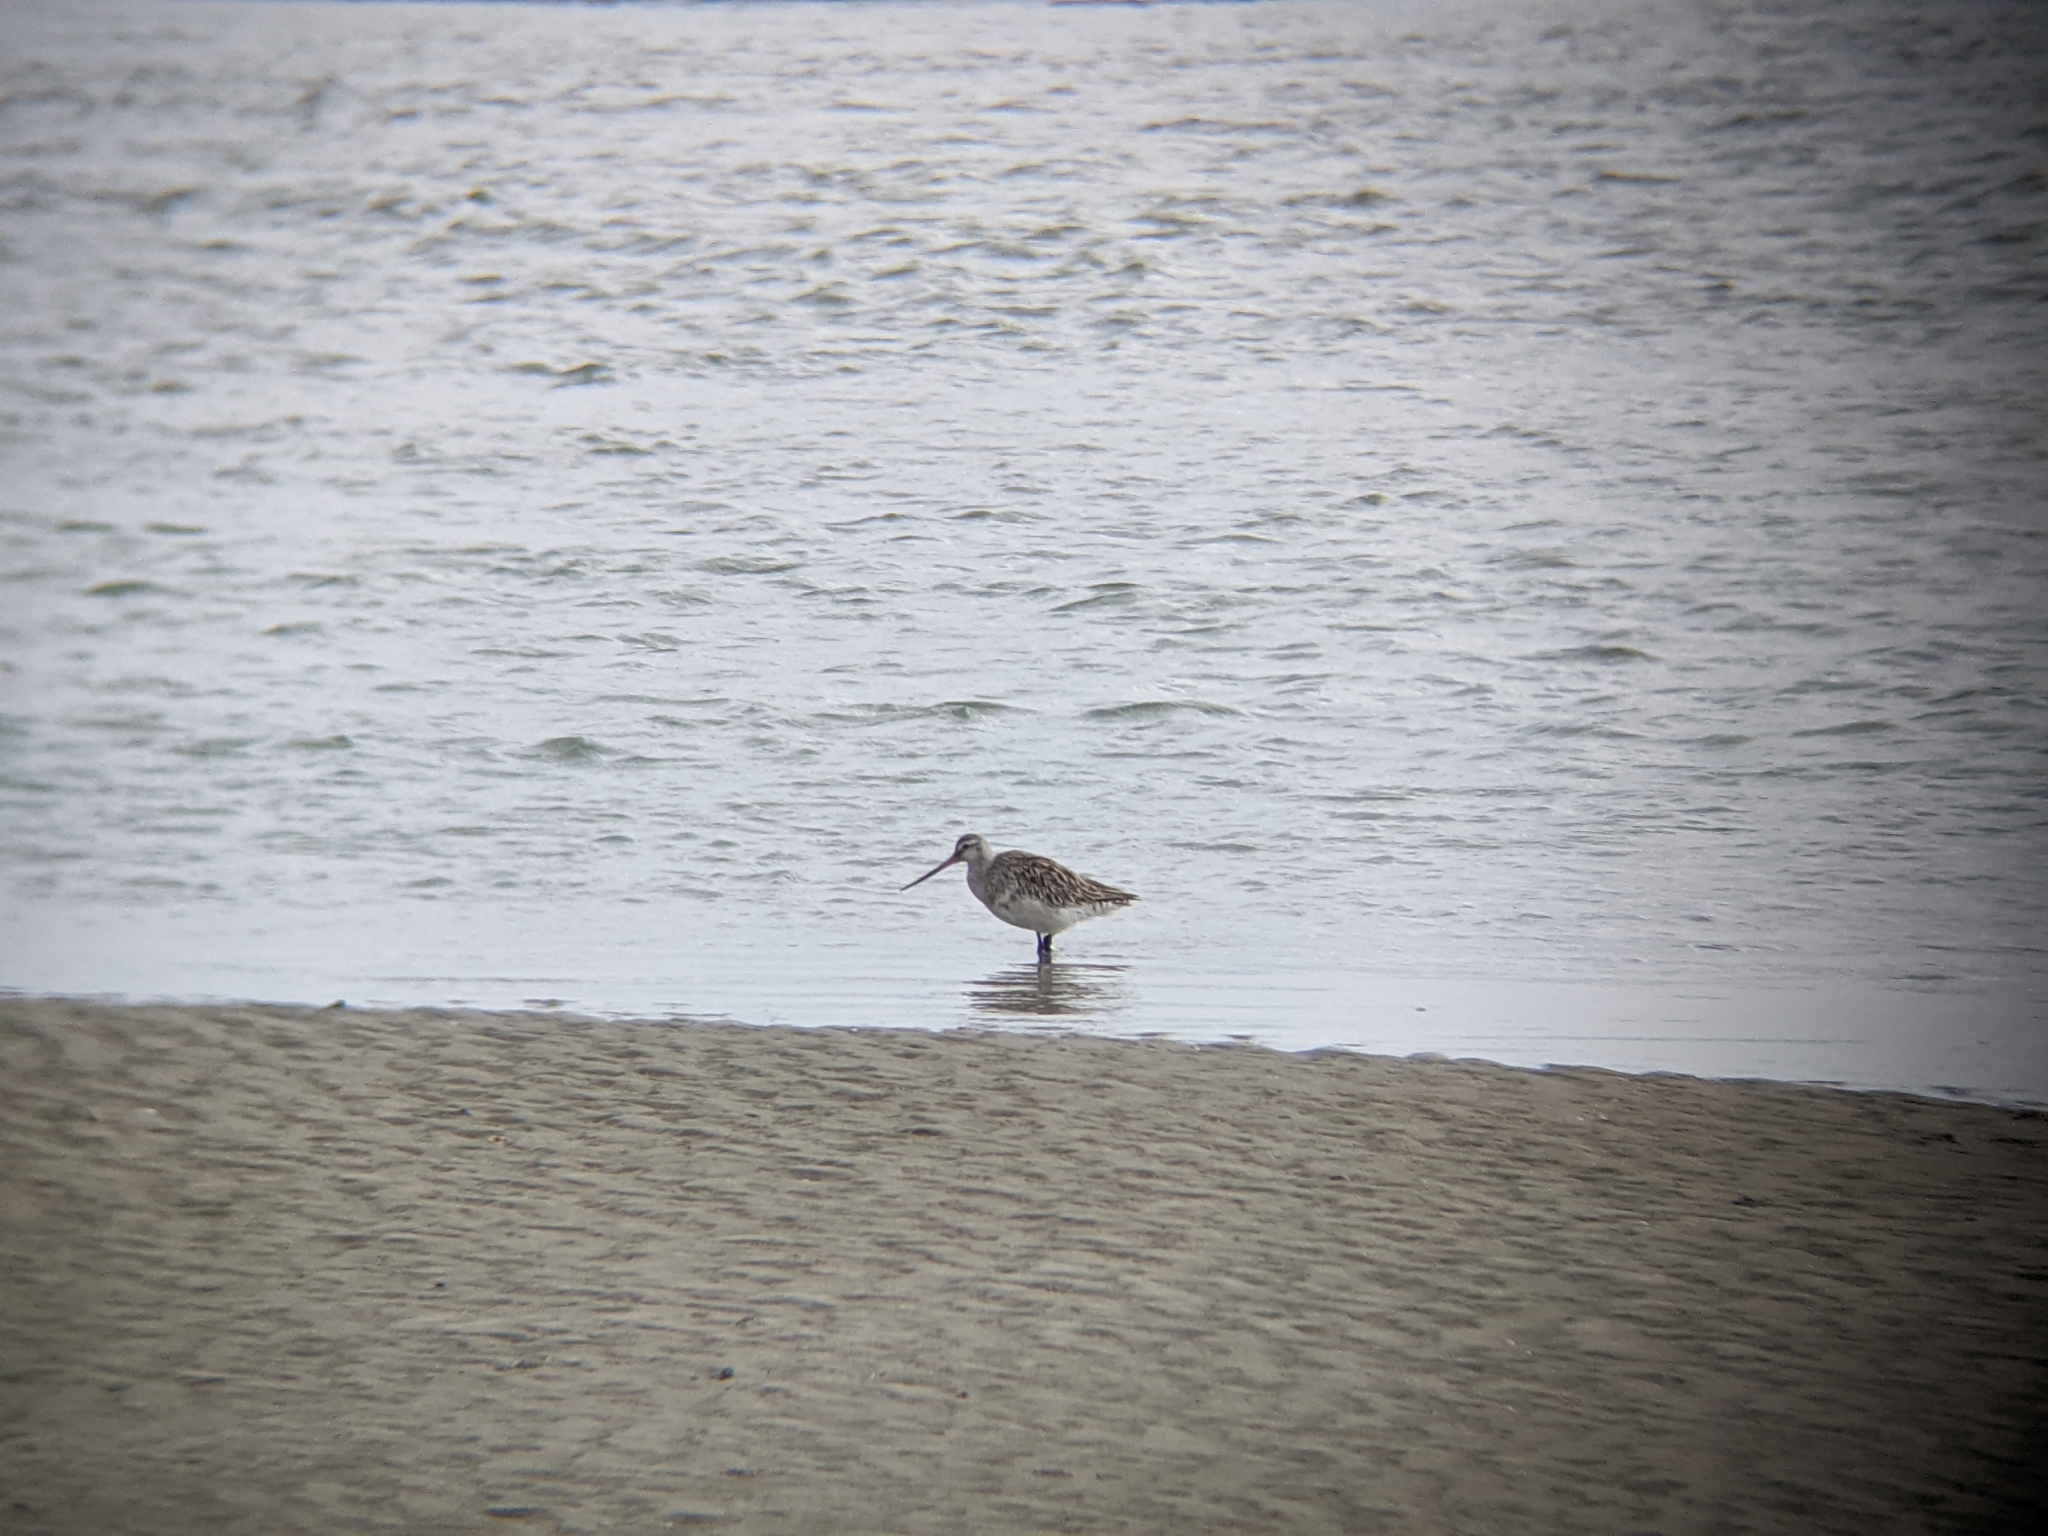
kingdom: Animalia
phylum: Chordata
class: Aves
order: Charadriiformes
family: Scolopacidae
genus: Limosa
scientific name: Limosa lapponica
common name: Bar-tailed godwit
